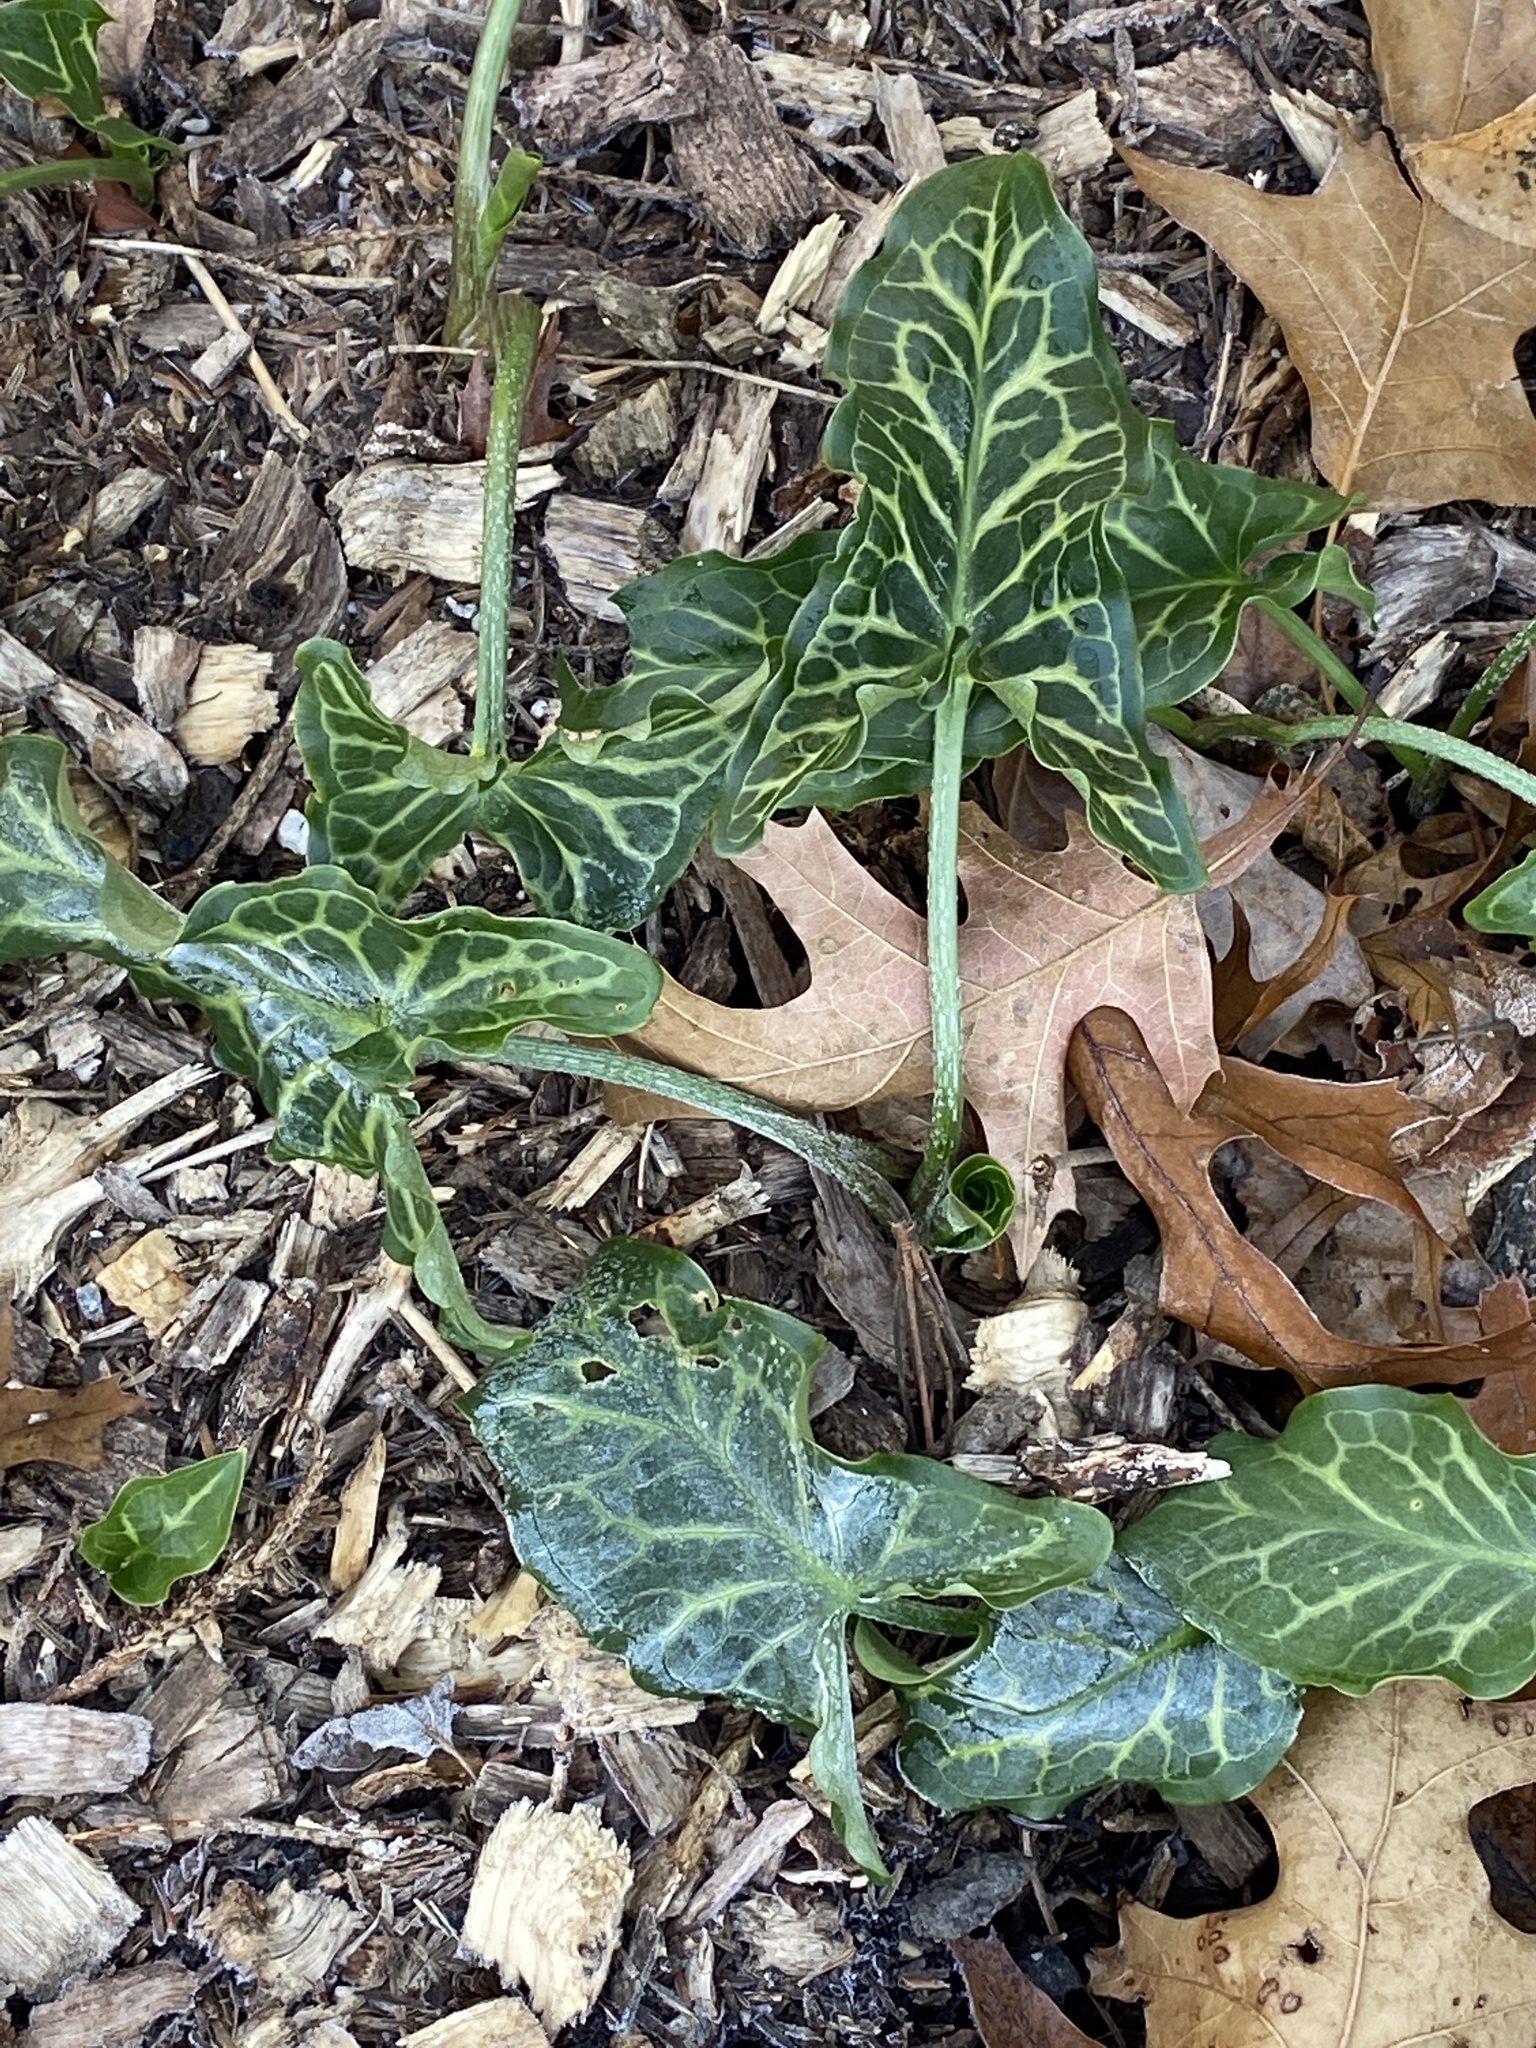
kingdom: Plantae
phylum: Tracheophyta
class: Liliopsida
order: Alismatales
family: Araceae
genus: Arum
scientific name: Arum italicum
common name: Italian lords-and-ladies
